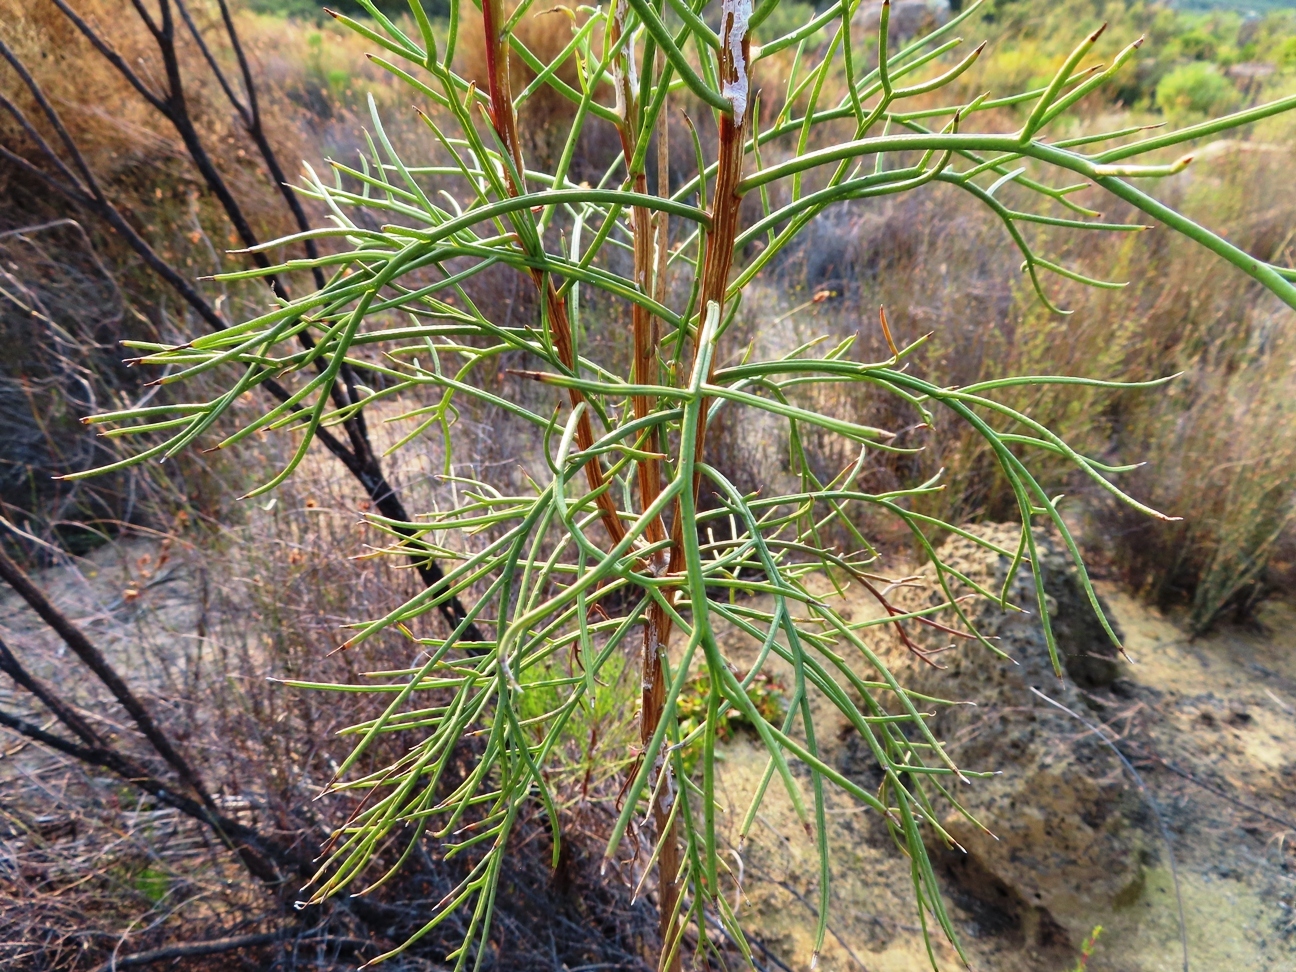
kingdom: Plantae
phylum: Tracheophyta
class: Magnoliopsida
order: Asterales
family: Asteraceae
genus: Euryops
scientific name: Euryops speciosissimus
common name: Clanwilliam daisy
